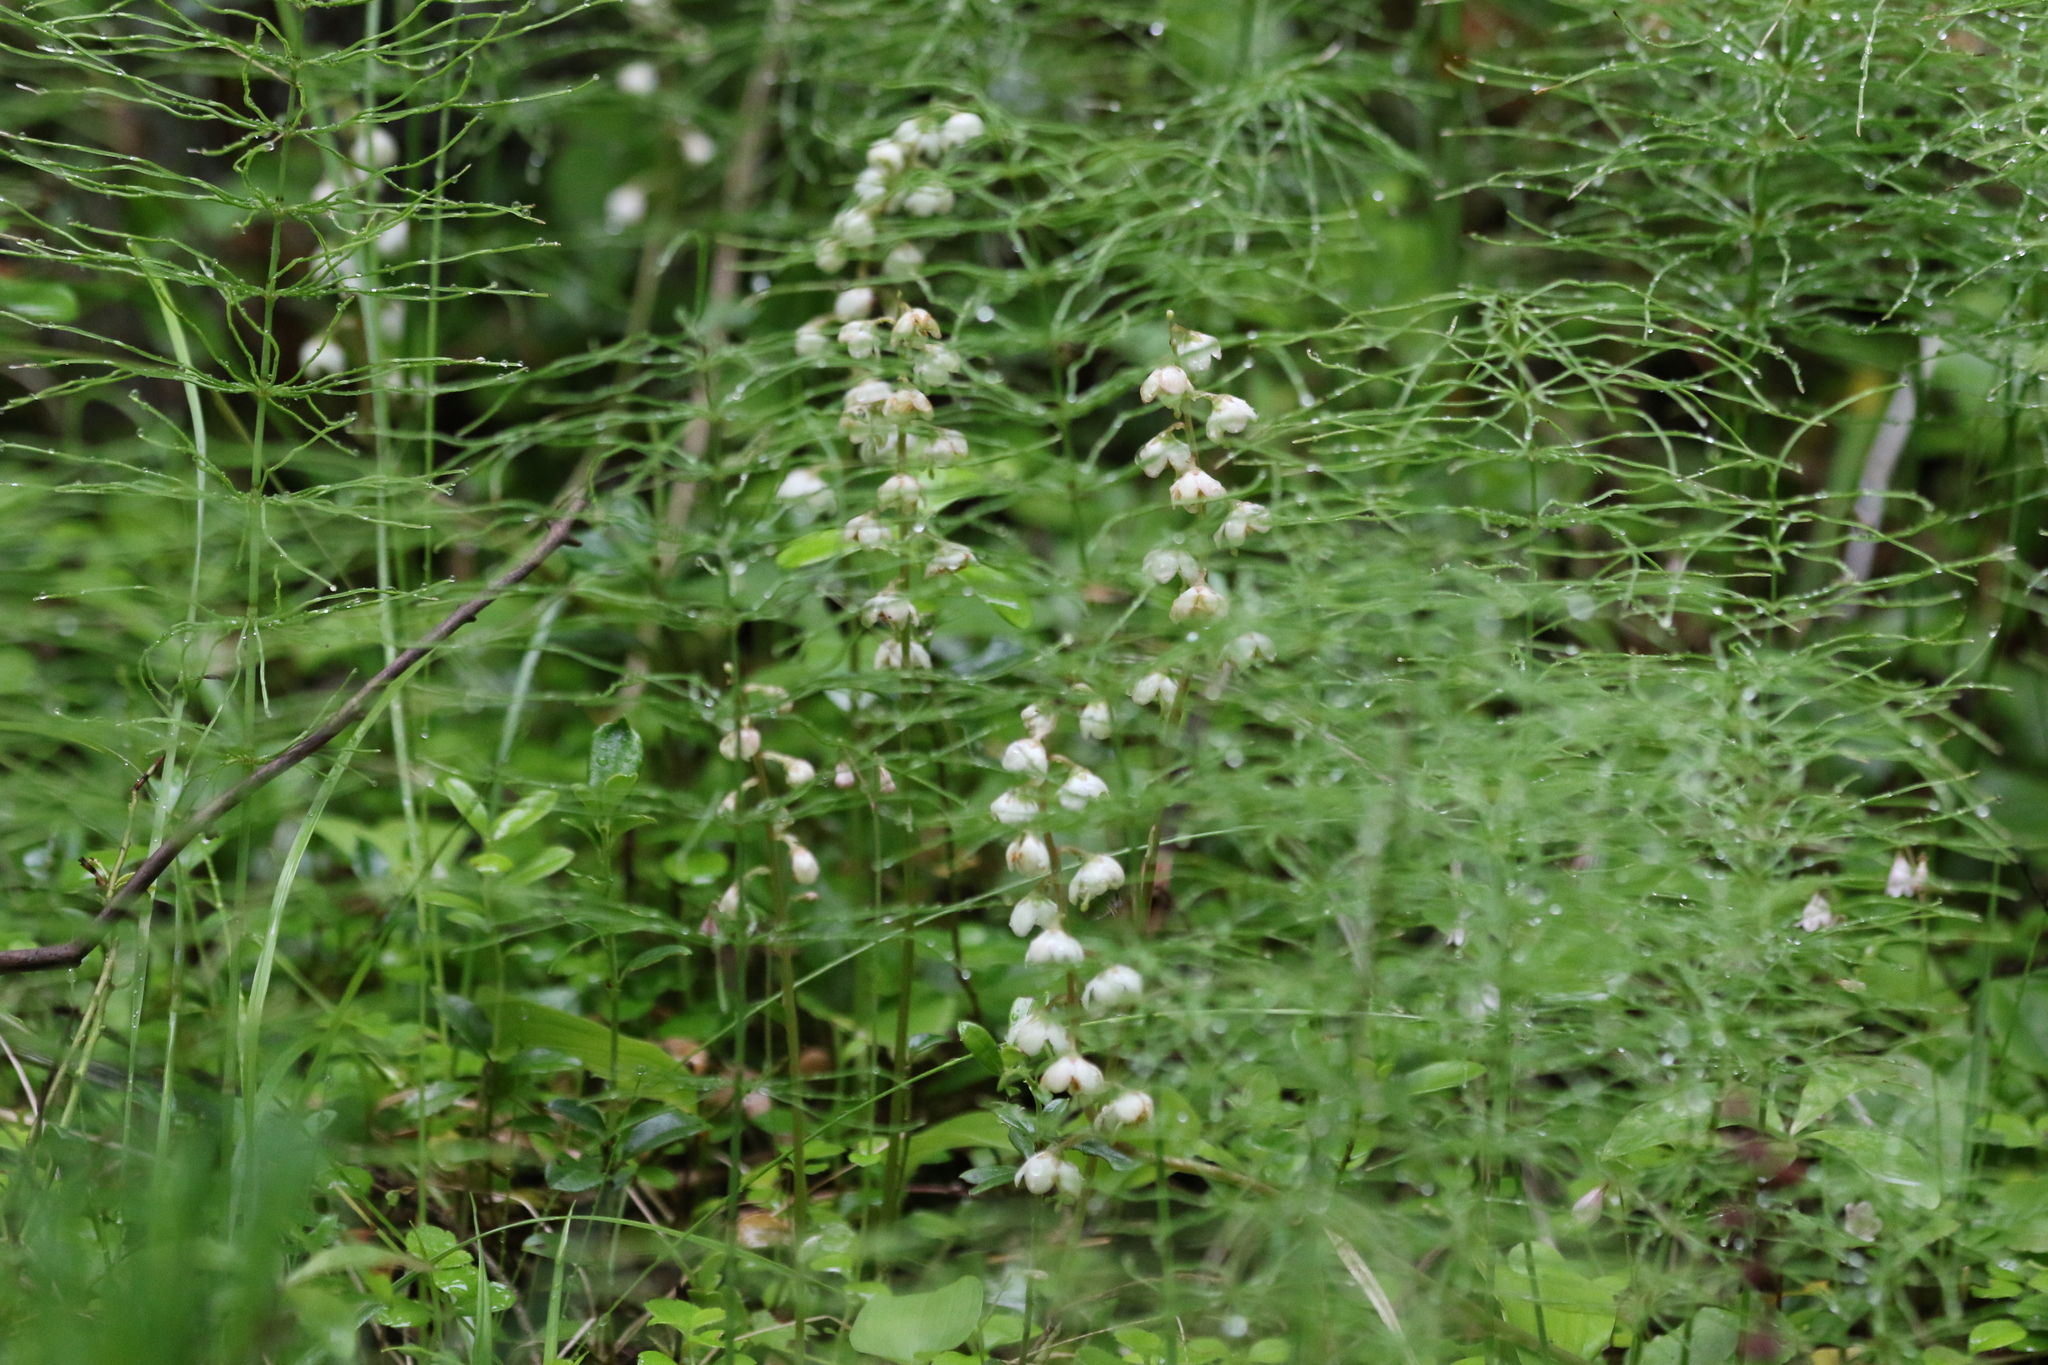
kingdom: Plantae
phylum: Tracheophyta
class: Magnoliopsida
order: Ericales
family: Ericaceae
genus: Pyrola
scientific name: Pyrola rotundifolia
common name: Round-leaved wintergreen
